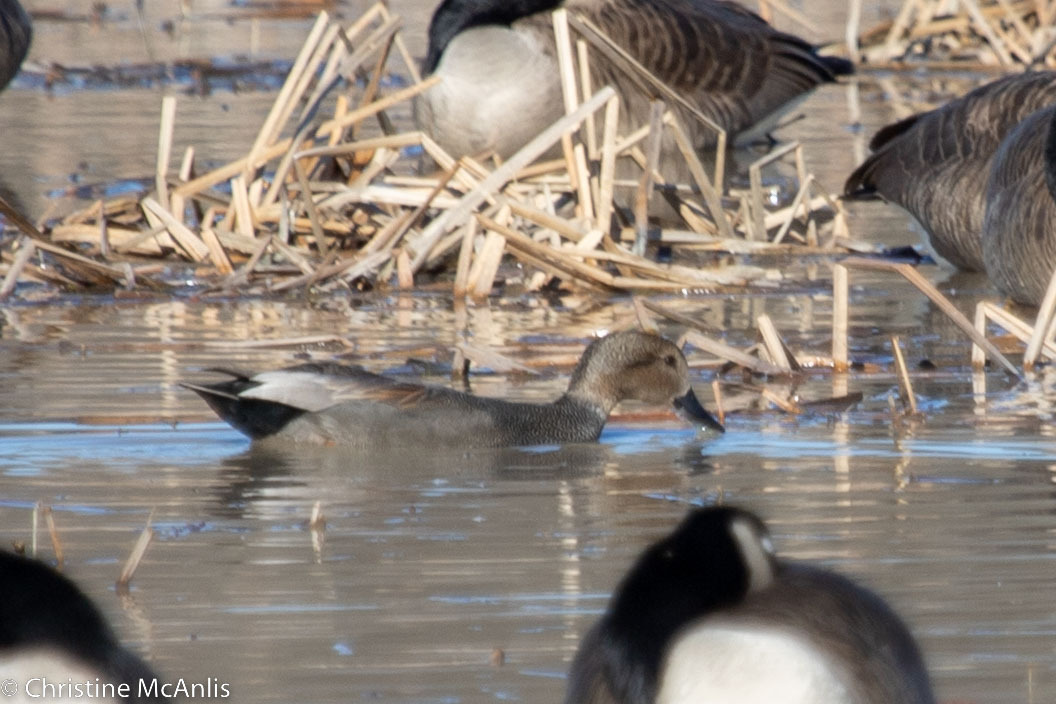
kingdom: Animalia
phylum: Chordata
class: Aves
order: Anseriformes
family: Anatidae
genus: Mareca
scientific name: Mareca strepera
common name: Gadwall
